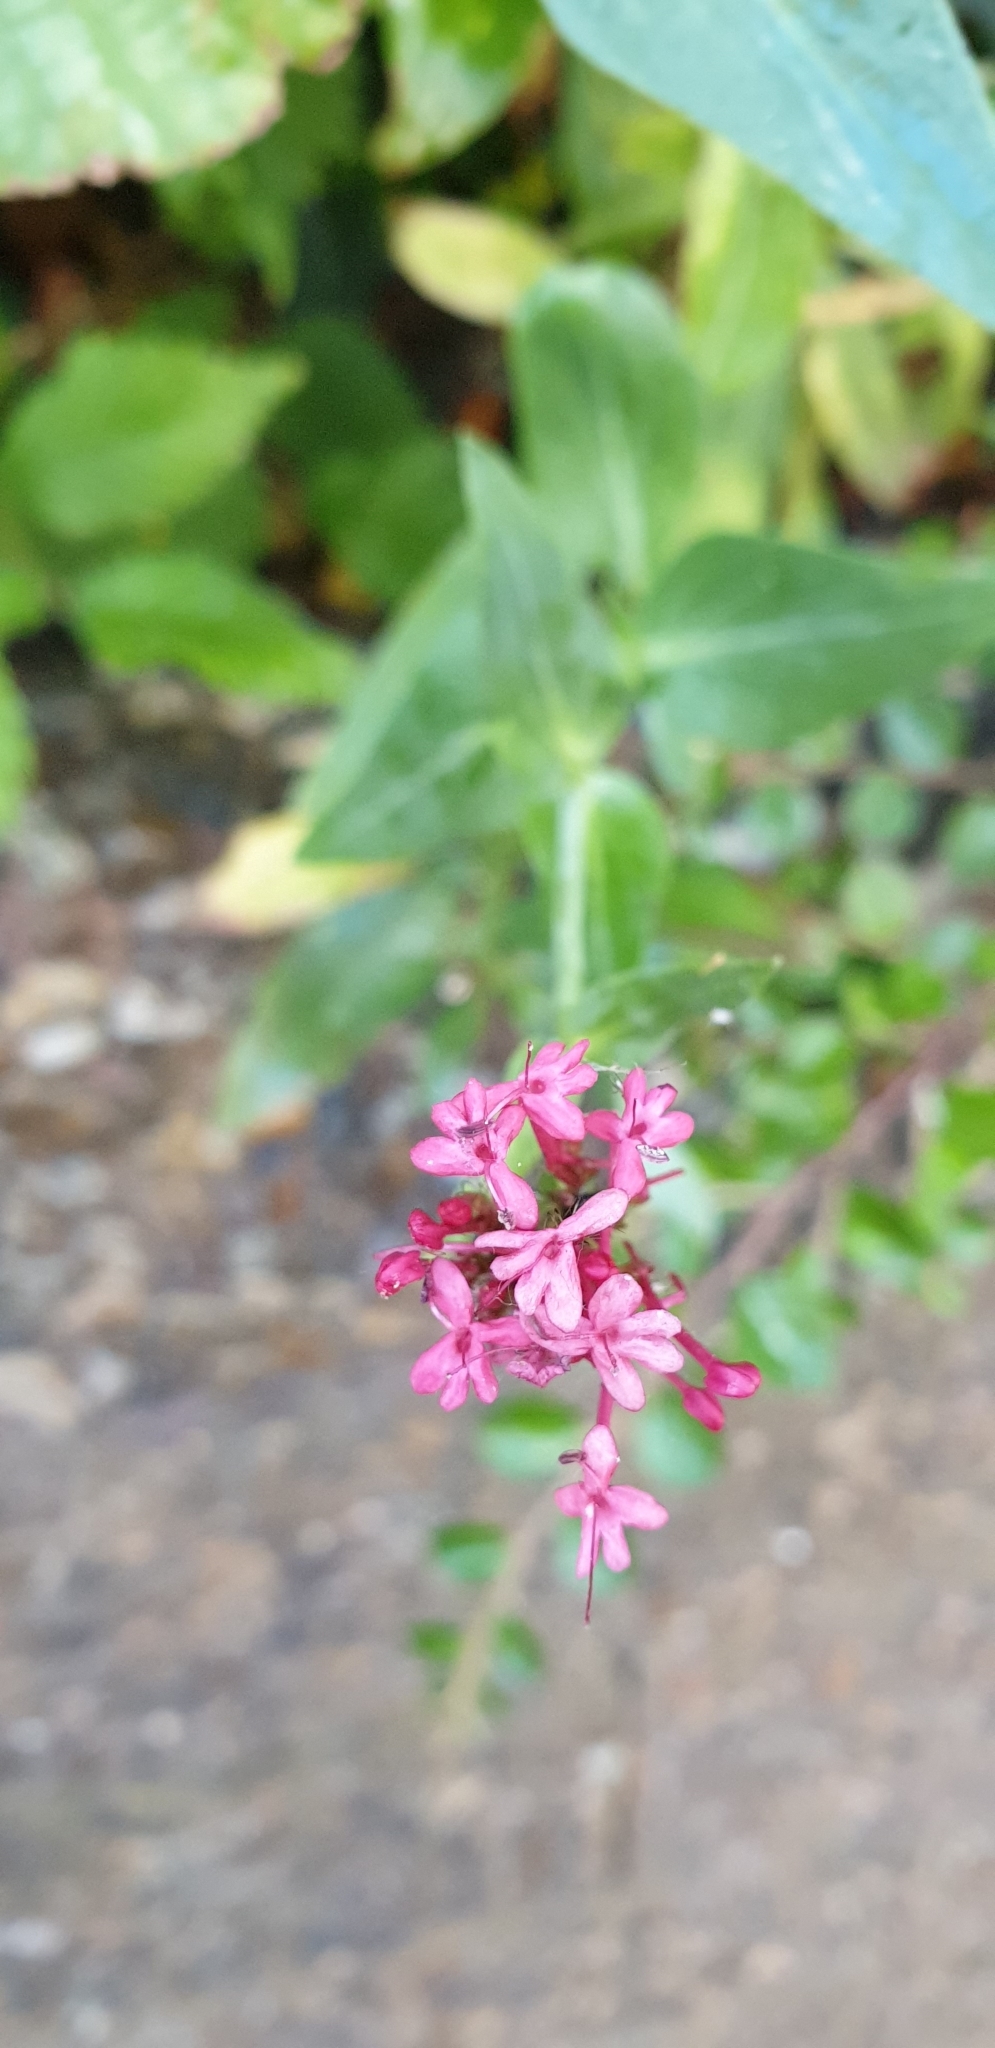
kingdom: Plantae
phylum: Tracheophyta
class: Magnoliopsida
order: Dipsacales
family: Caprifoliaceae
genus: Centranthus
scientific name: Centranthus ruber
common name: Red valerian
